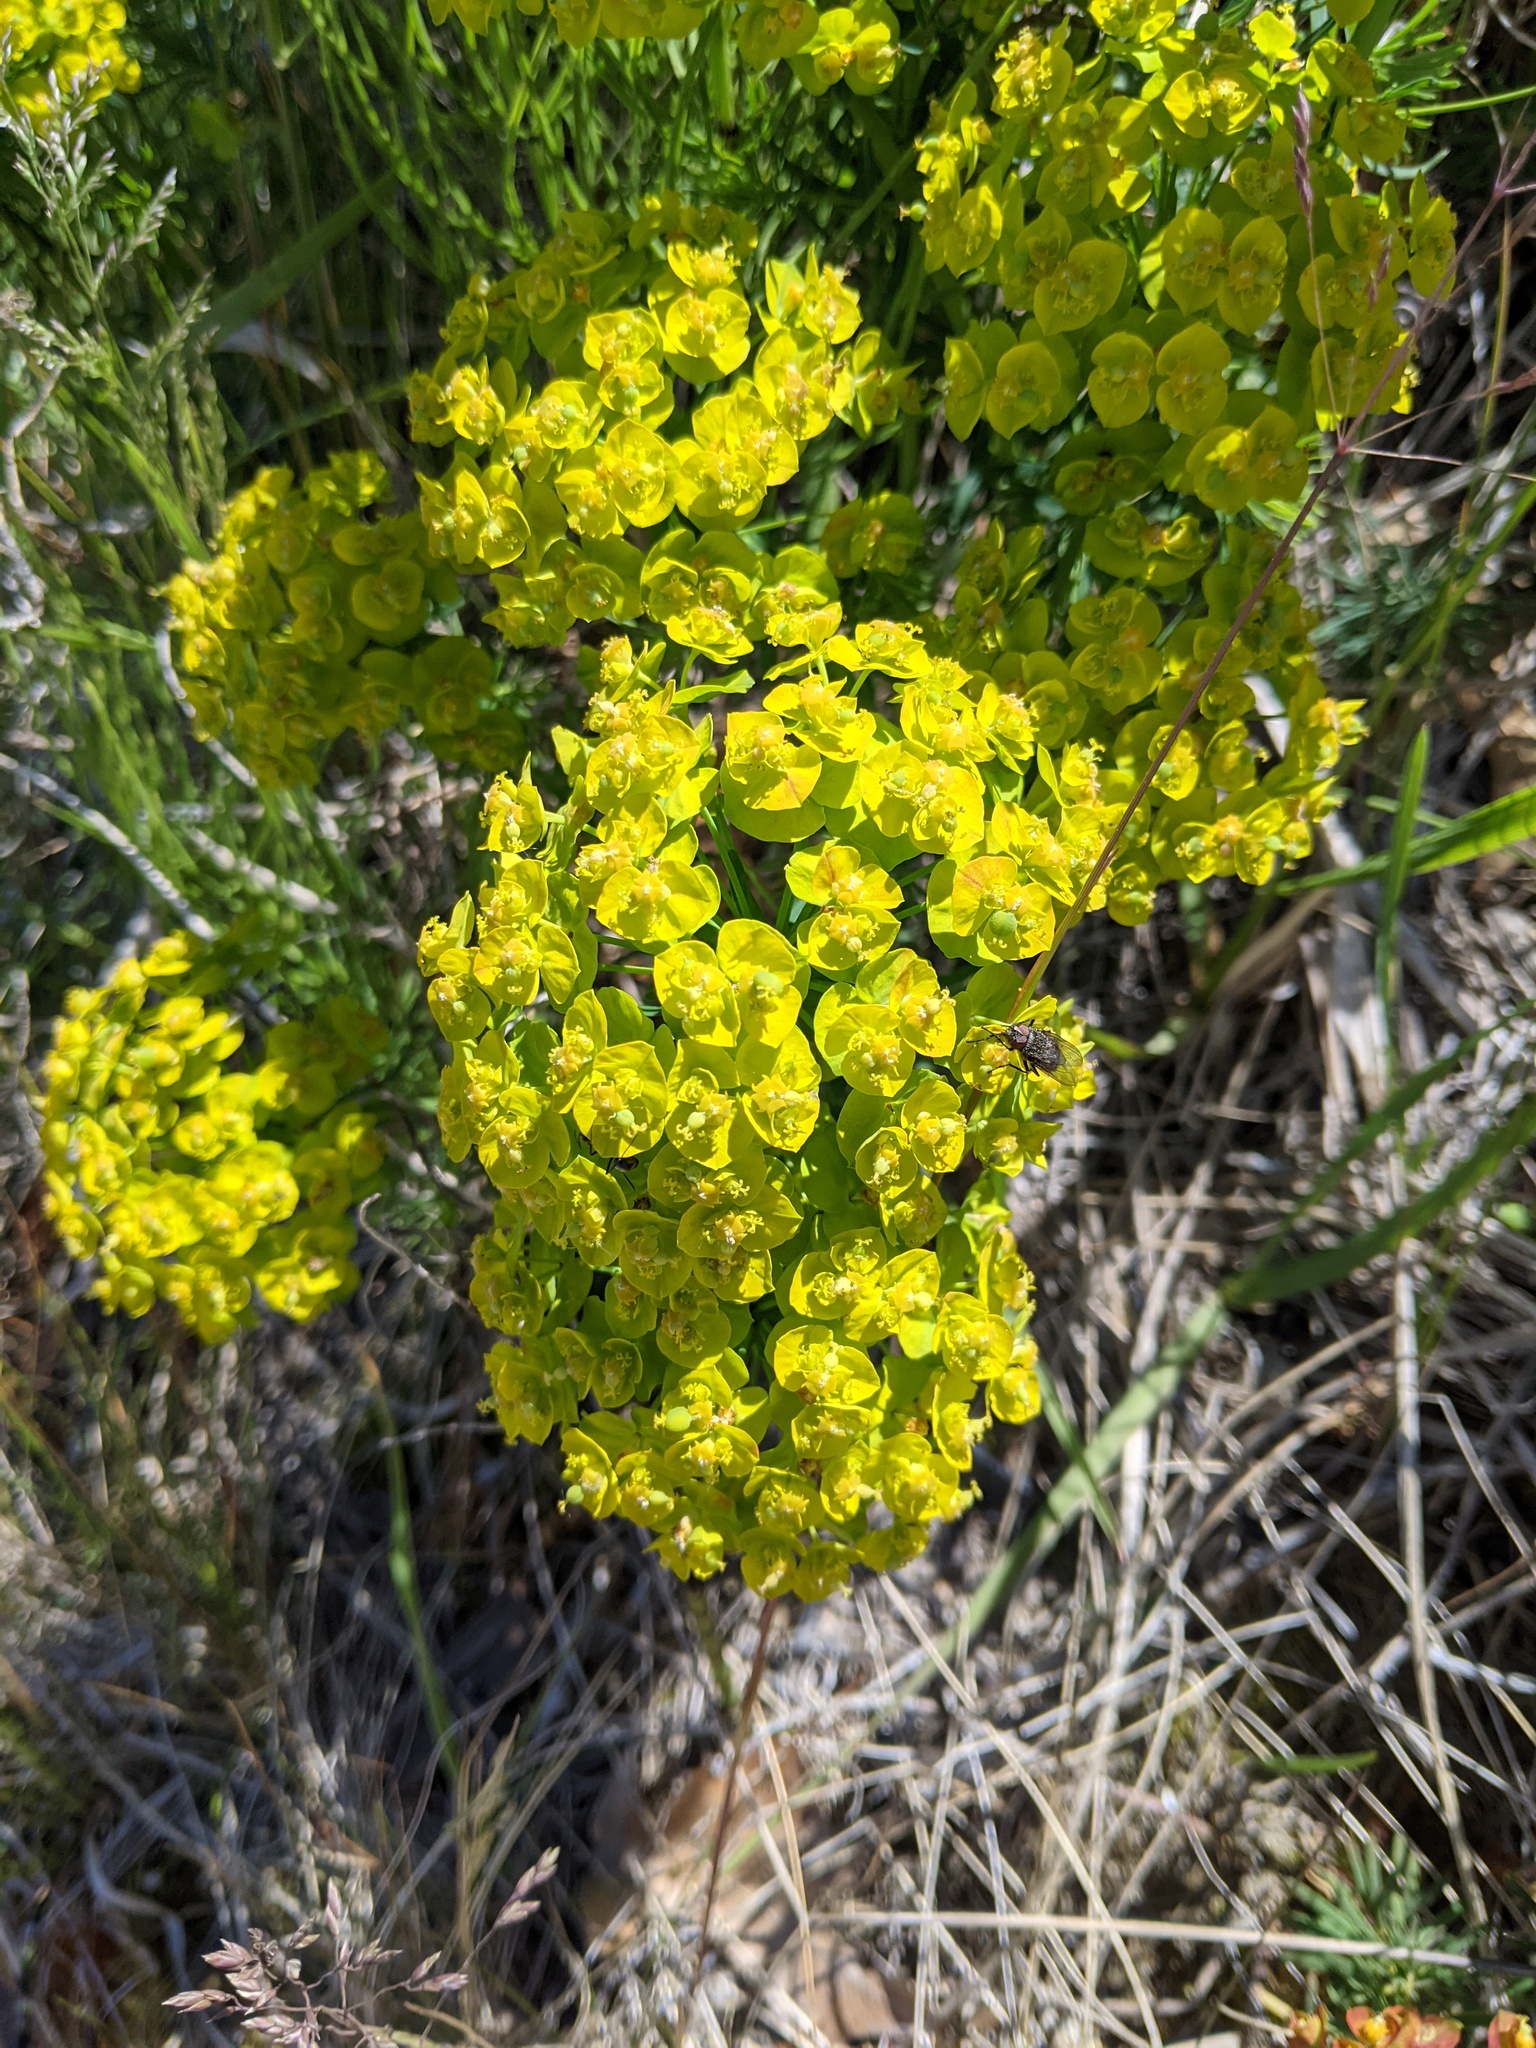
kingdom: Plantae
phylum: Tracheophyta
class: Magnoliopsida
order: Malpighiales
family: Euphorbiaceae
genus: Euphorbia
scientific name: Euphorbia cyparissias
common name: Cypress spurge
